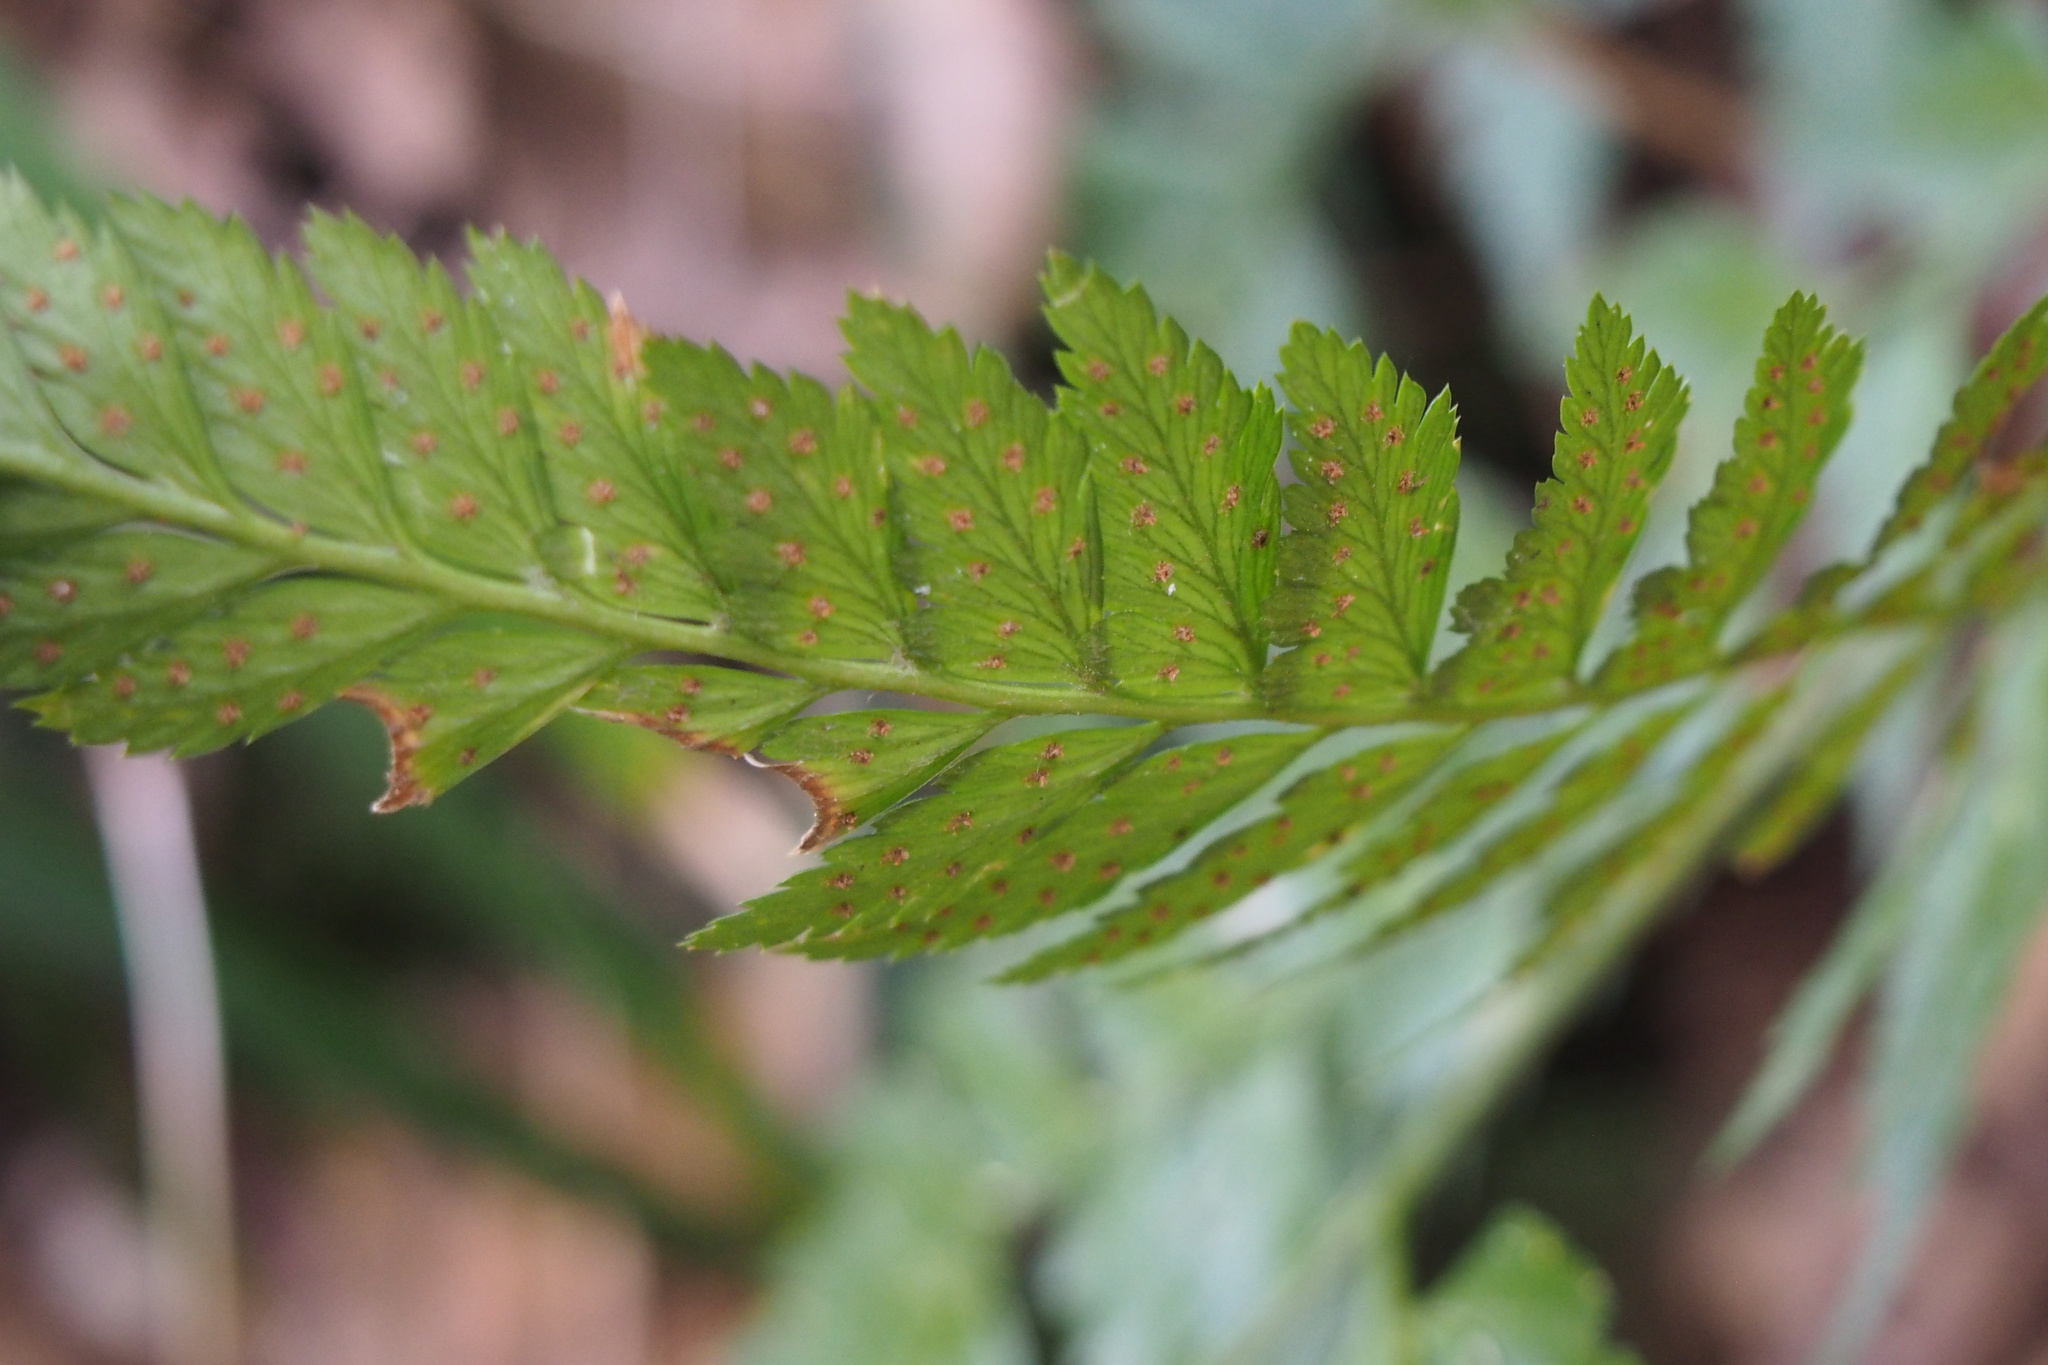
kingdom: Plantae
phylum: Tracheophyta
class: Polypodiopsida
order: Polypodiales
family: Dryopteridaceae
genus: Arachniodes
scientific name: Arachniodes nipponica
